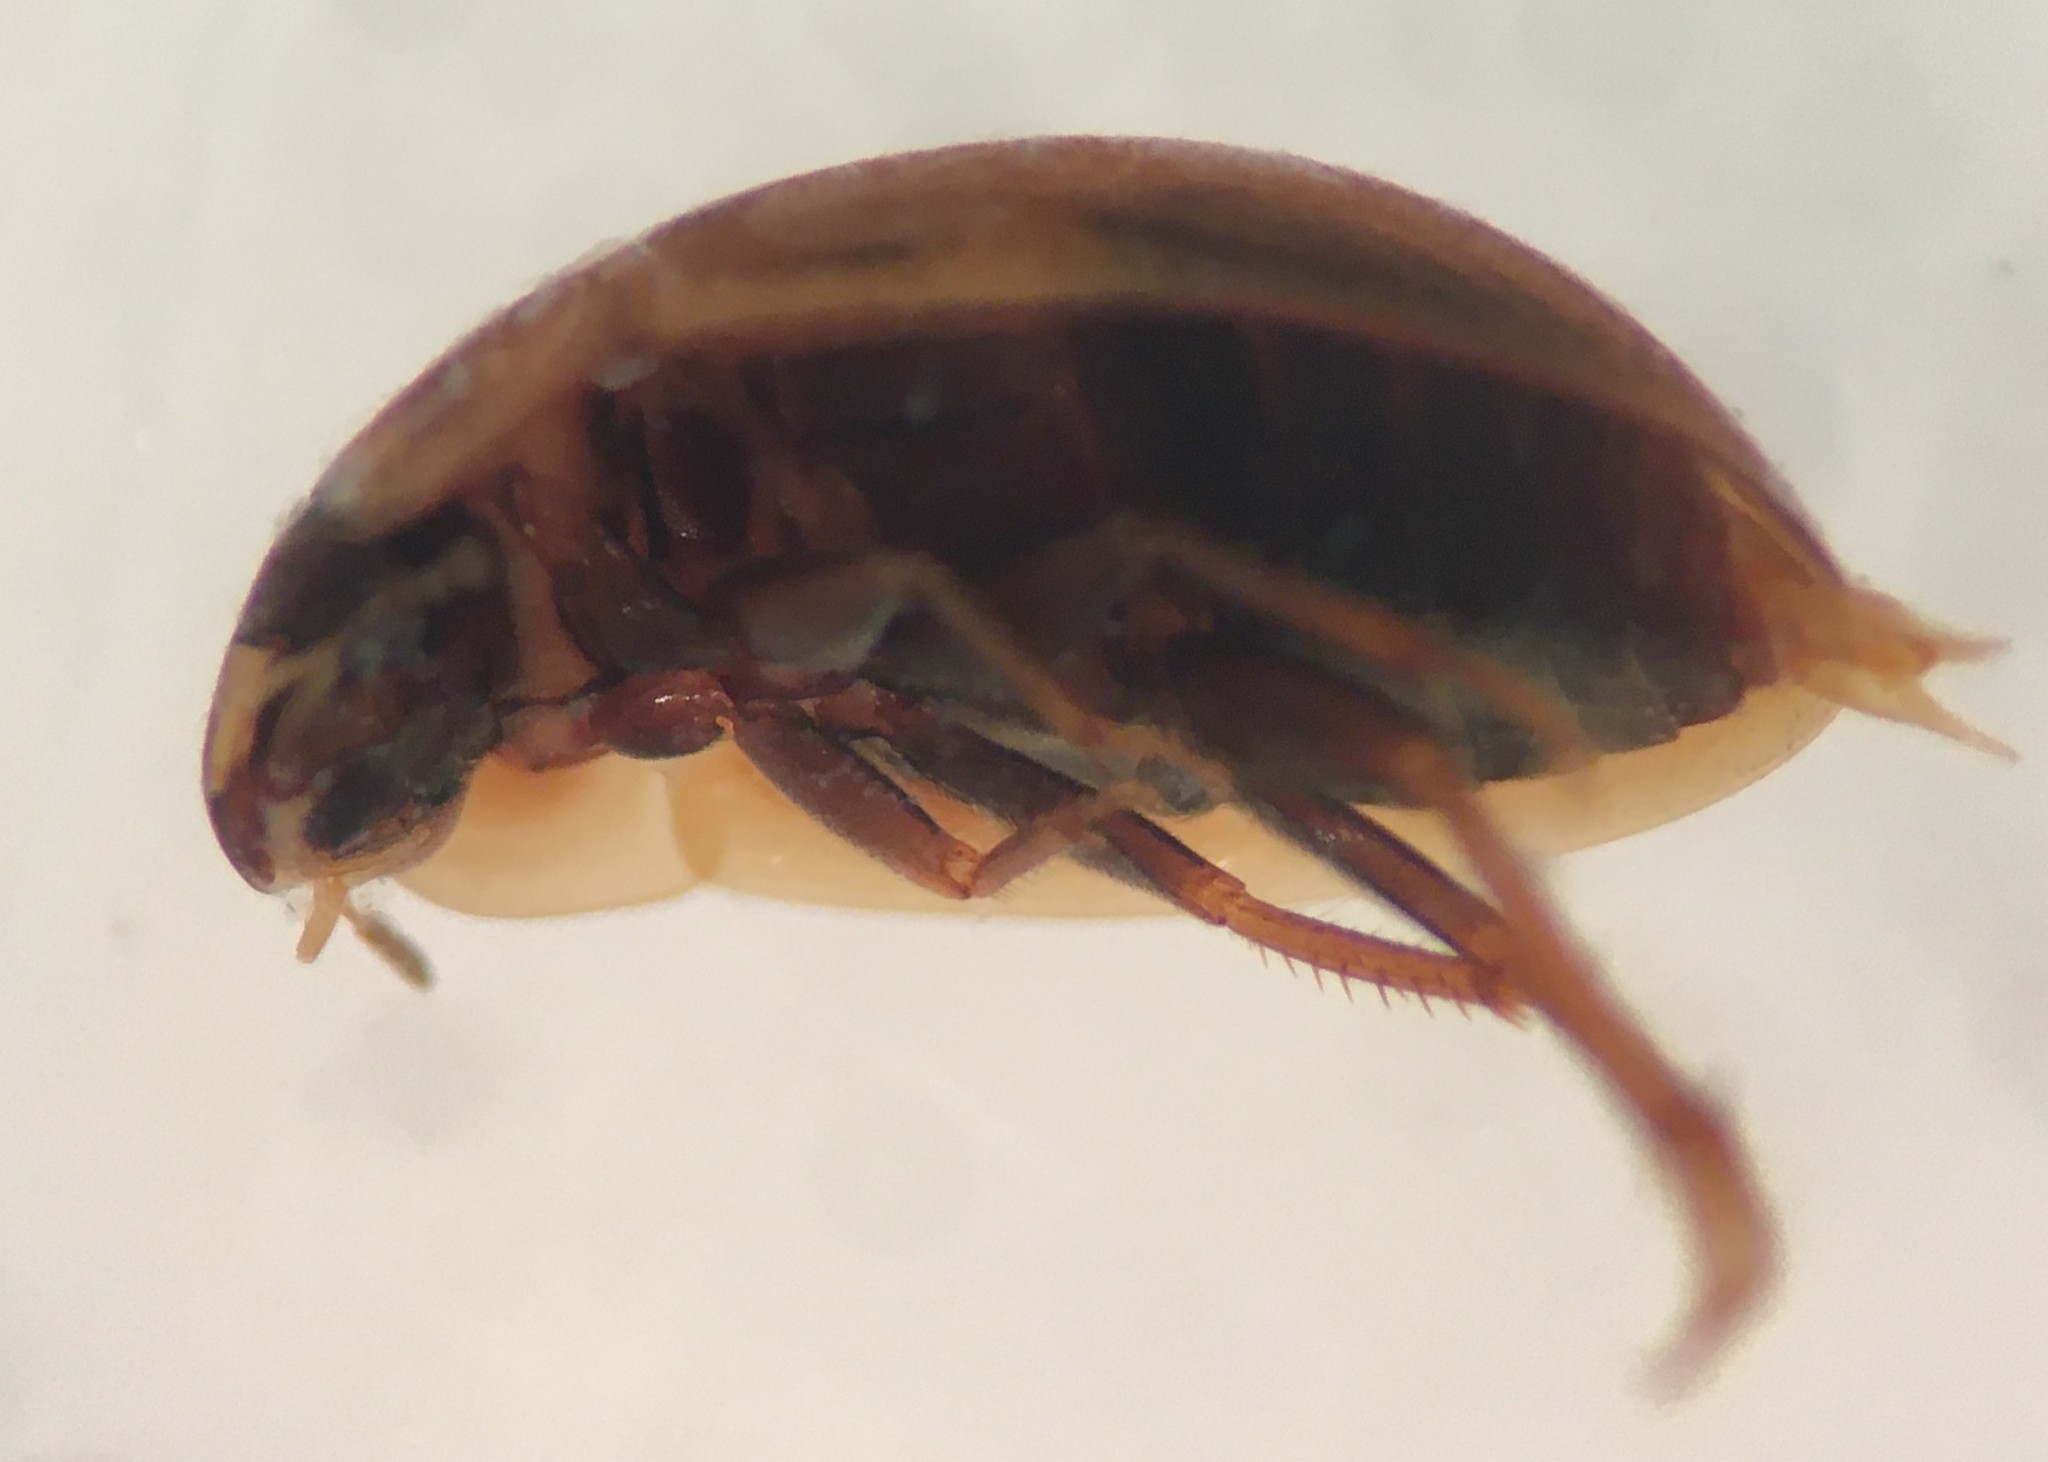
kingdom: Animalia
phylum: Arthropoda
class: Insecta
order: Coleoptera
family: Hydrophilidae
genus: Enochrus
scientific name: Enochrus sayi
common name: Water scavenger beetle
